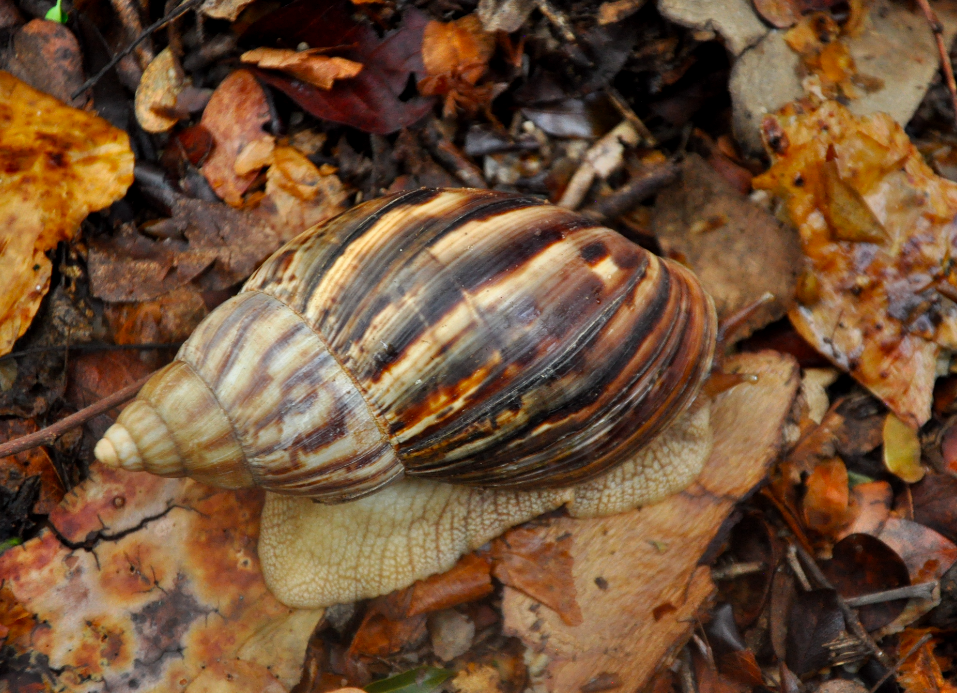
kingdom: Animalia
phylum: Mollusca
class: Gastropoda
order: Stylommatophora
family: Achatinidae
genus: Lissachatina
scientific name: Lissachatina immaculata
